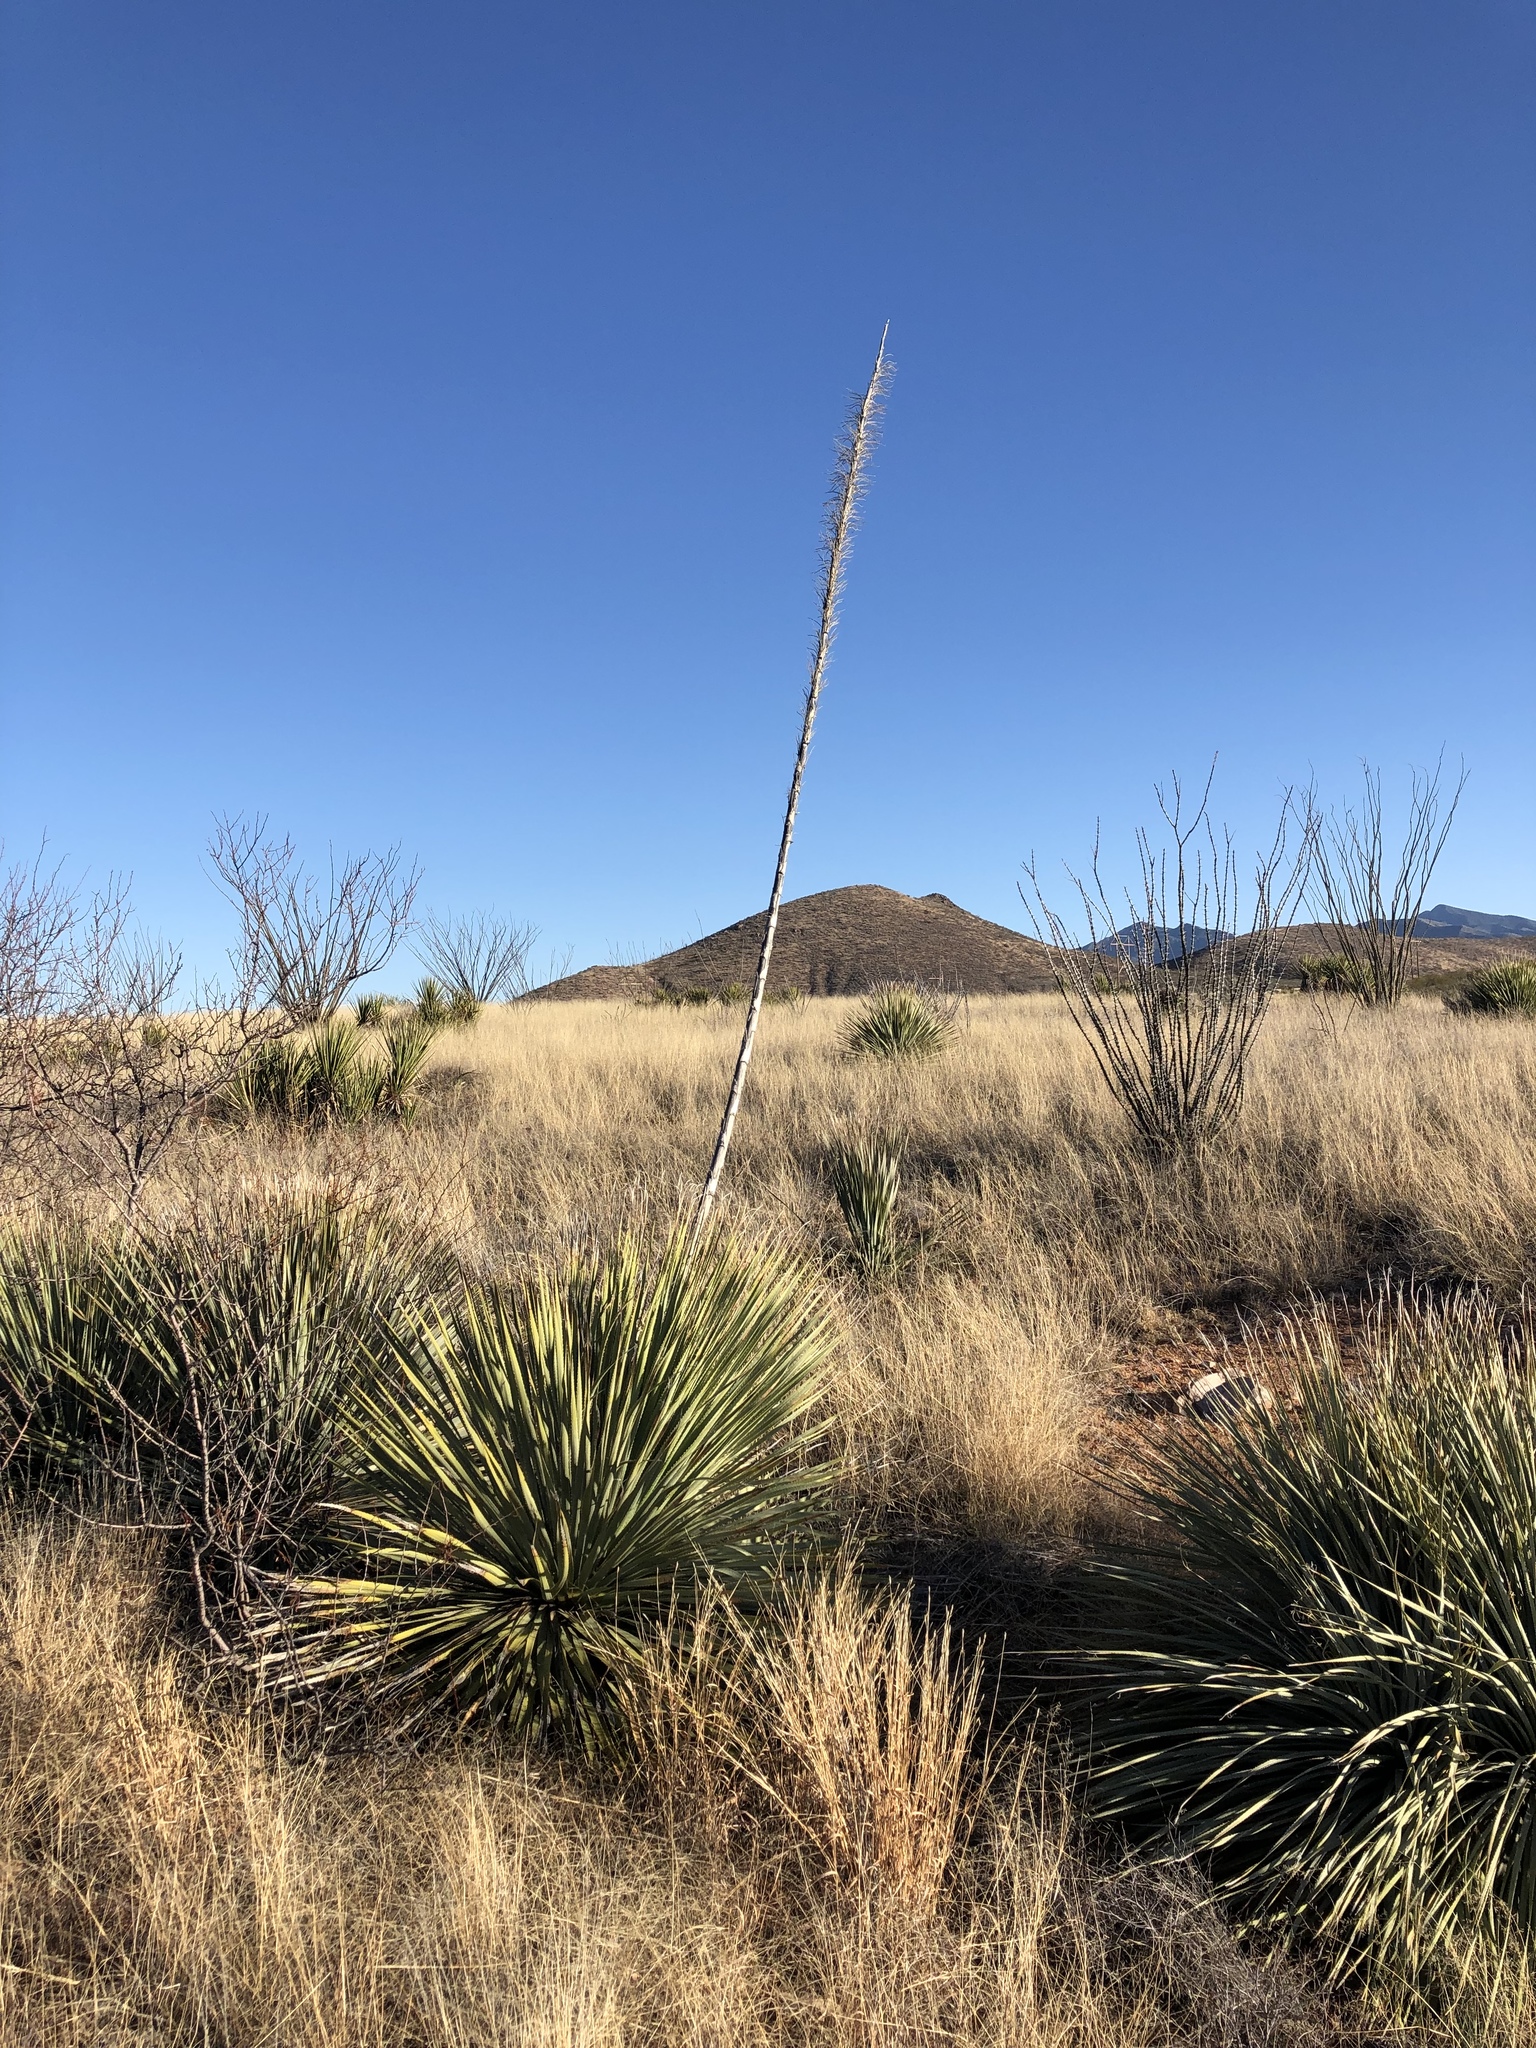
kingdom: Plantae
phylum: Tracheophyta
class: Liliopsida
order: Asparagales
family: Asparagaceae
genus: Dasylirion
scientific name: Dasylirion wheeleri
